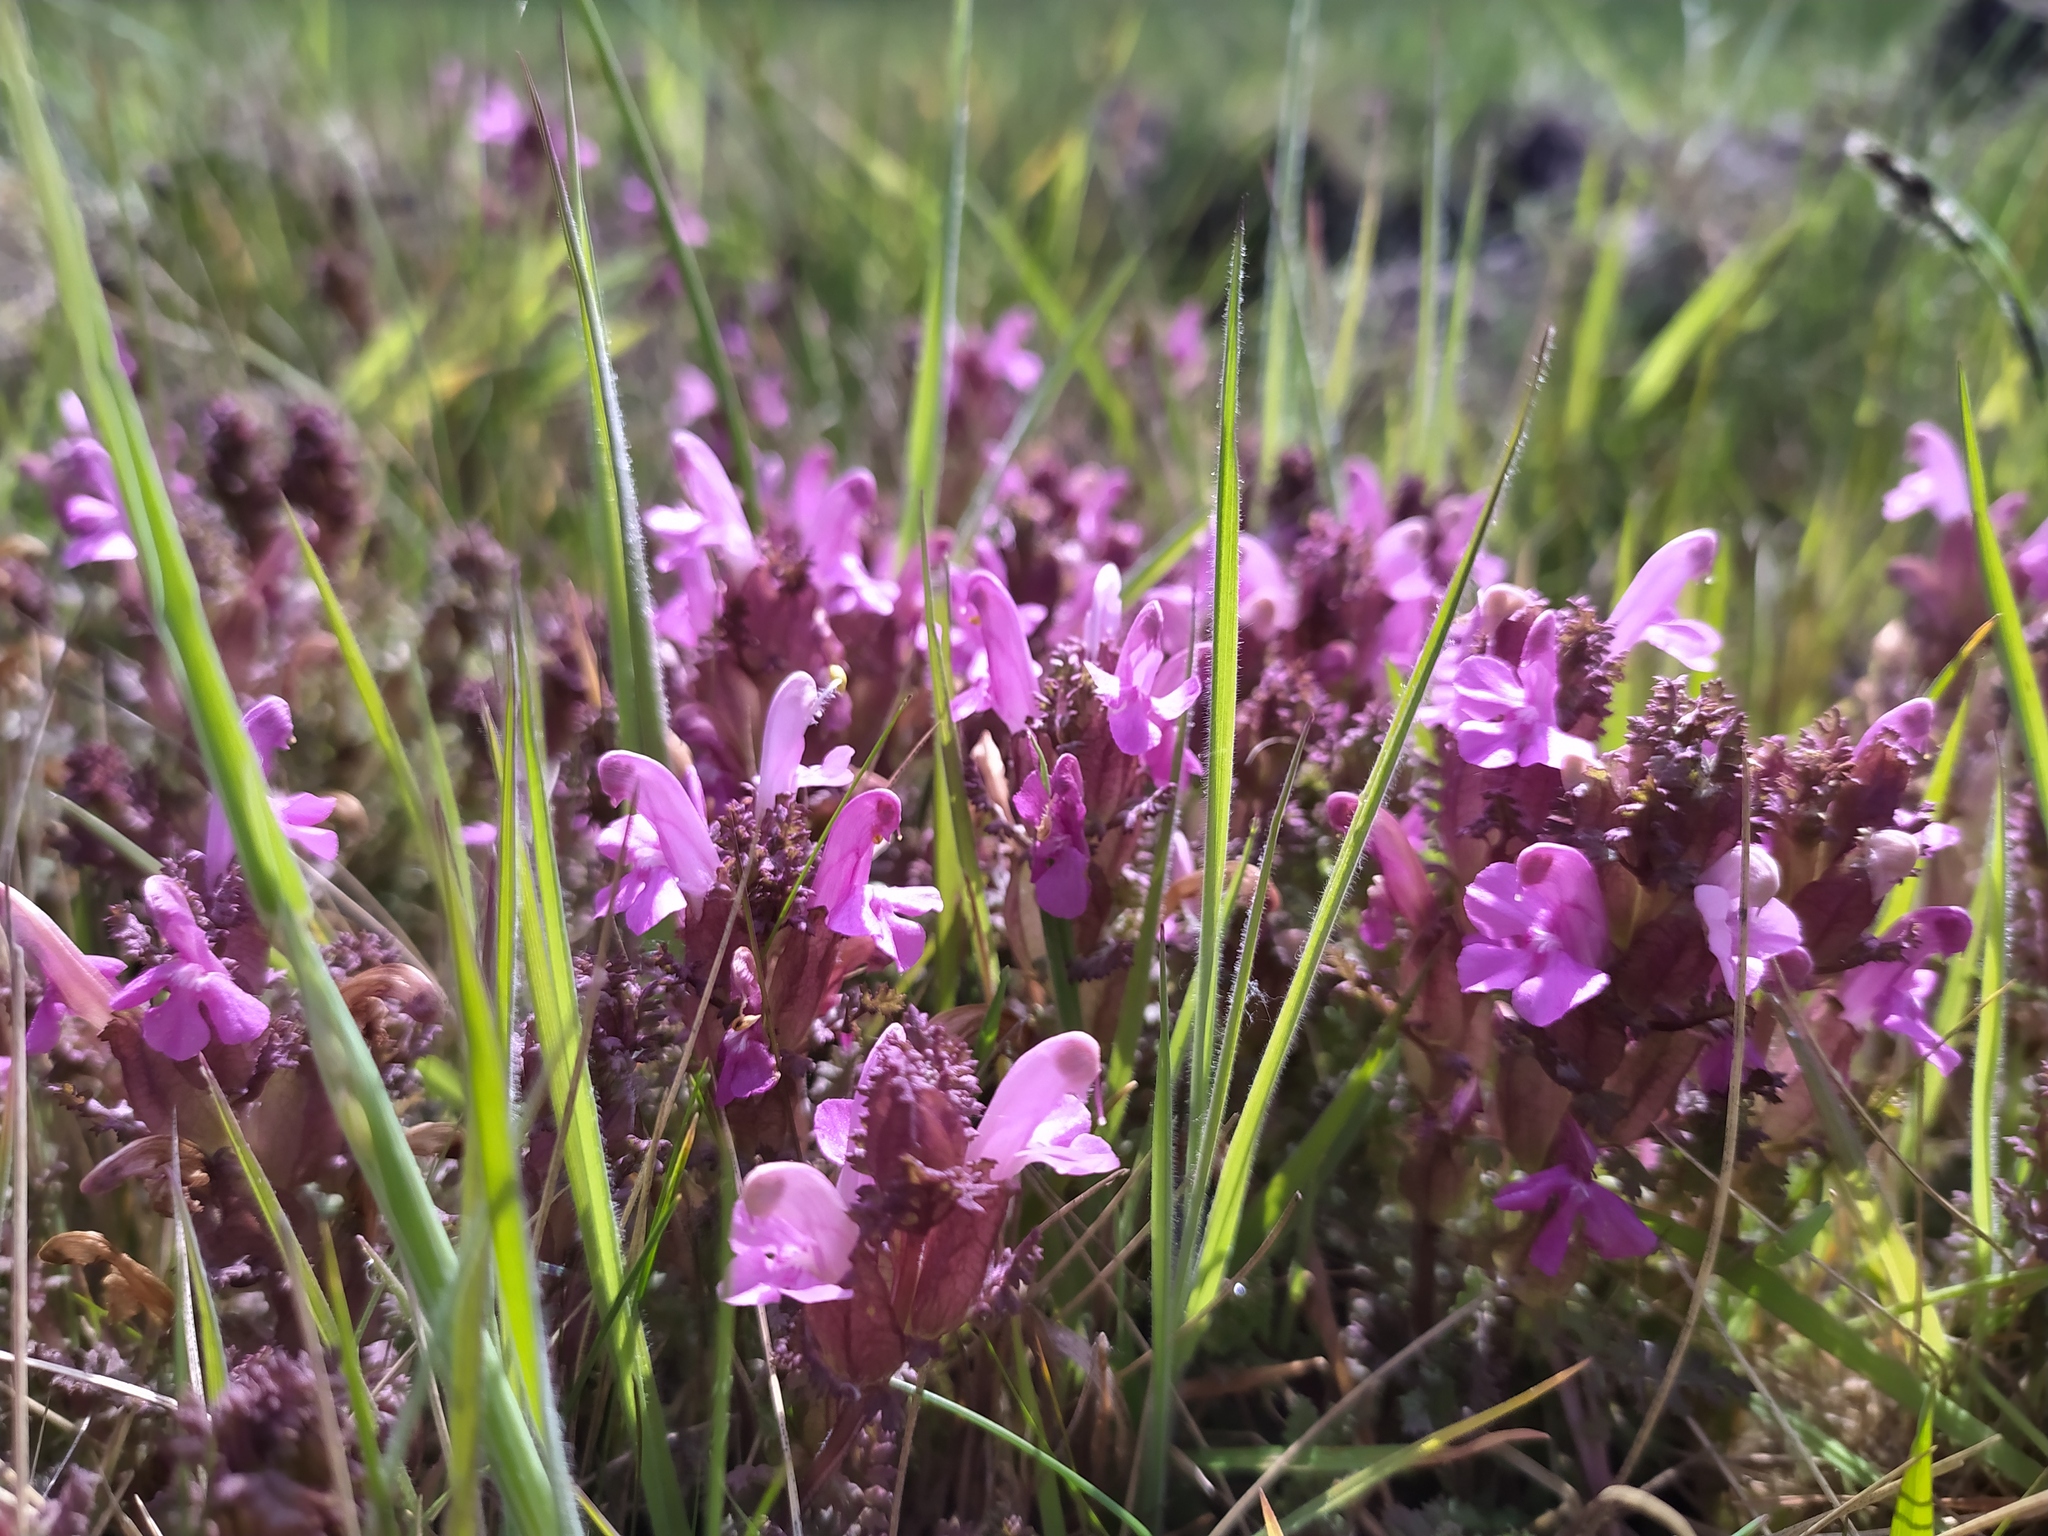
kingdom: Plantae
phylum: Tracheophyta
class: Magnoliopsida
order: Lamiales
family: Orobanchaceae
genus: Pedicularis
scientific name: Pedicularis sylvatica
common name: Lousewort
